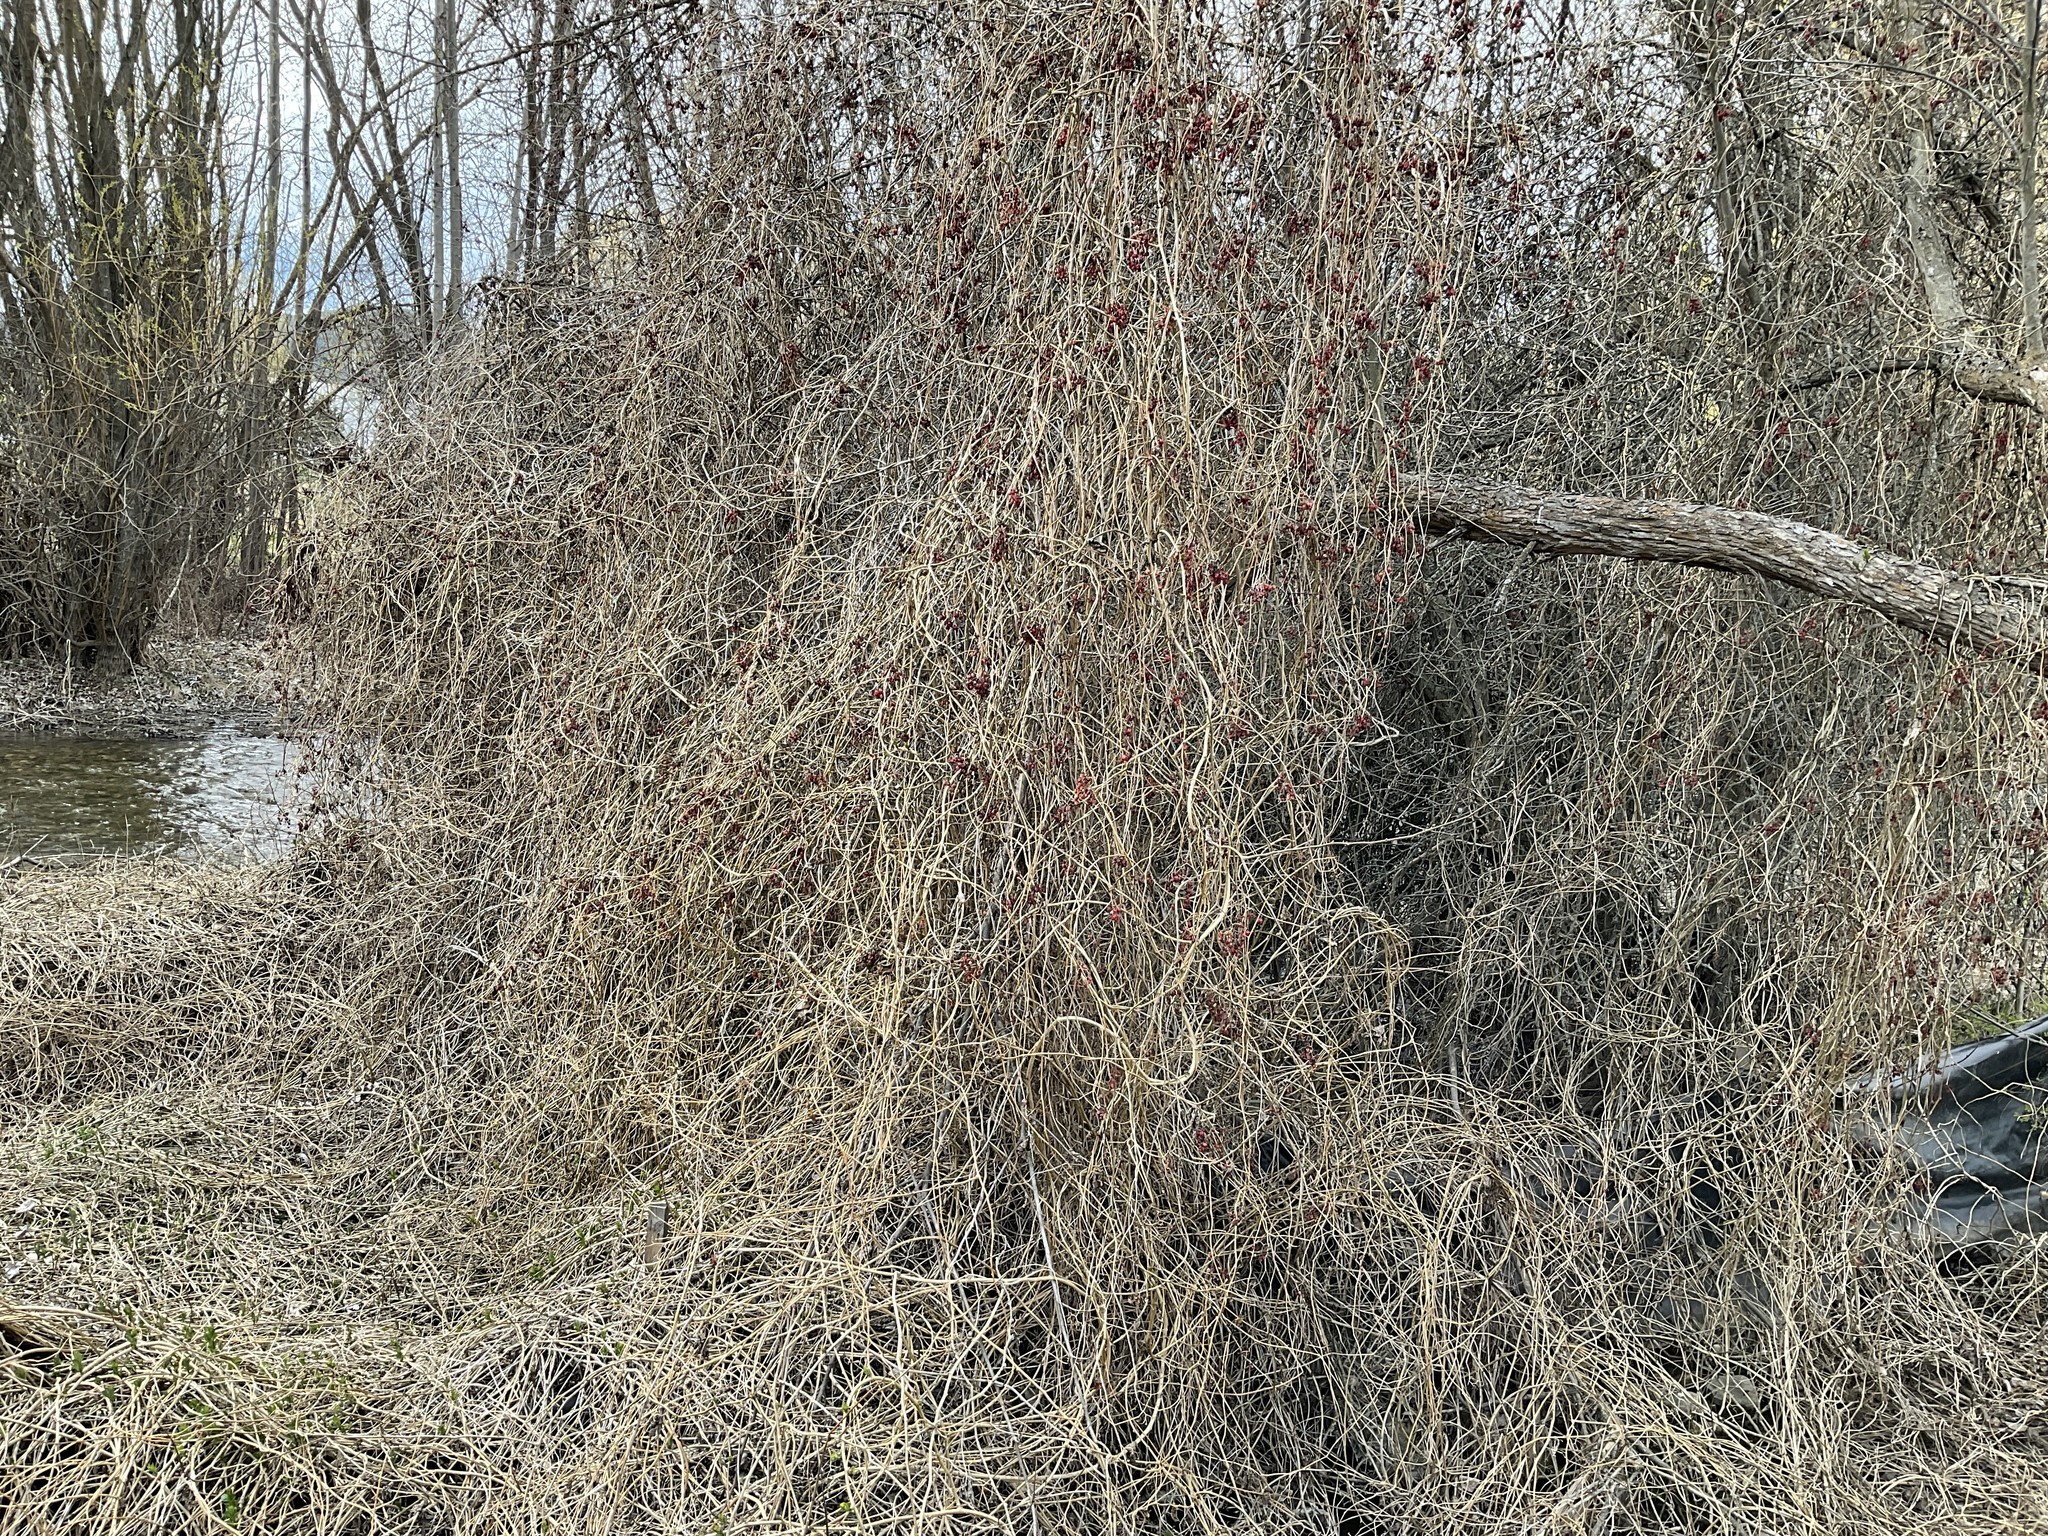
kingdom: Plantae
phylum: Tracheophyta
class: Magnoliopsida
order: Solanales
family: Solanaceae
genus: Solanum
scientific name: Solanum dulcamara
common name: Climbing nightshade
